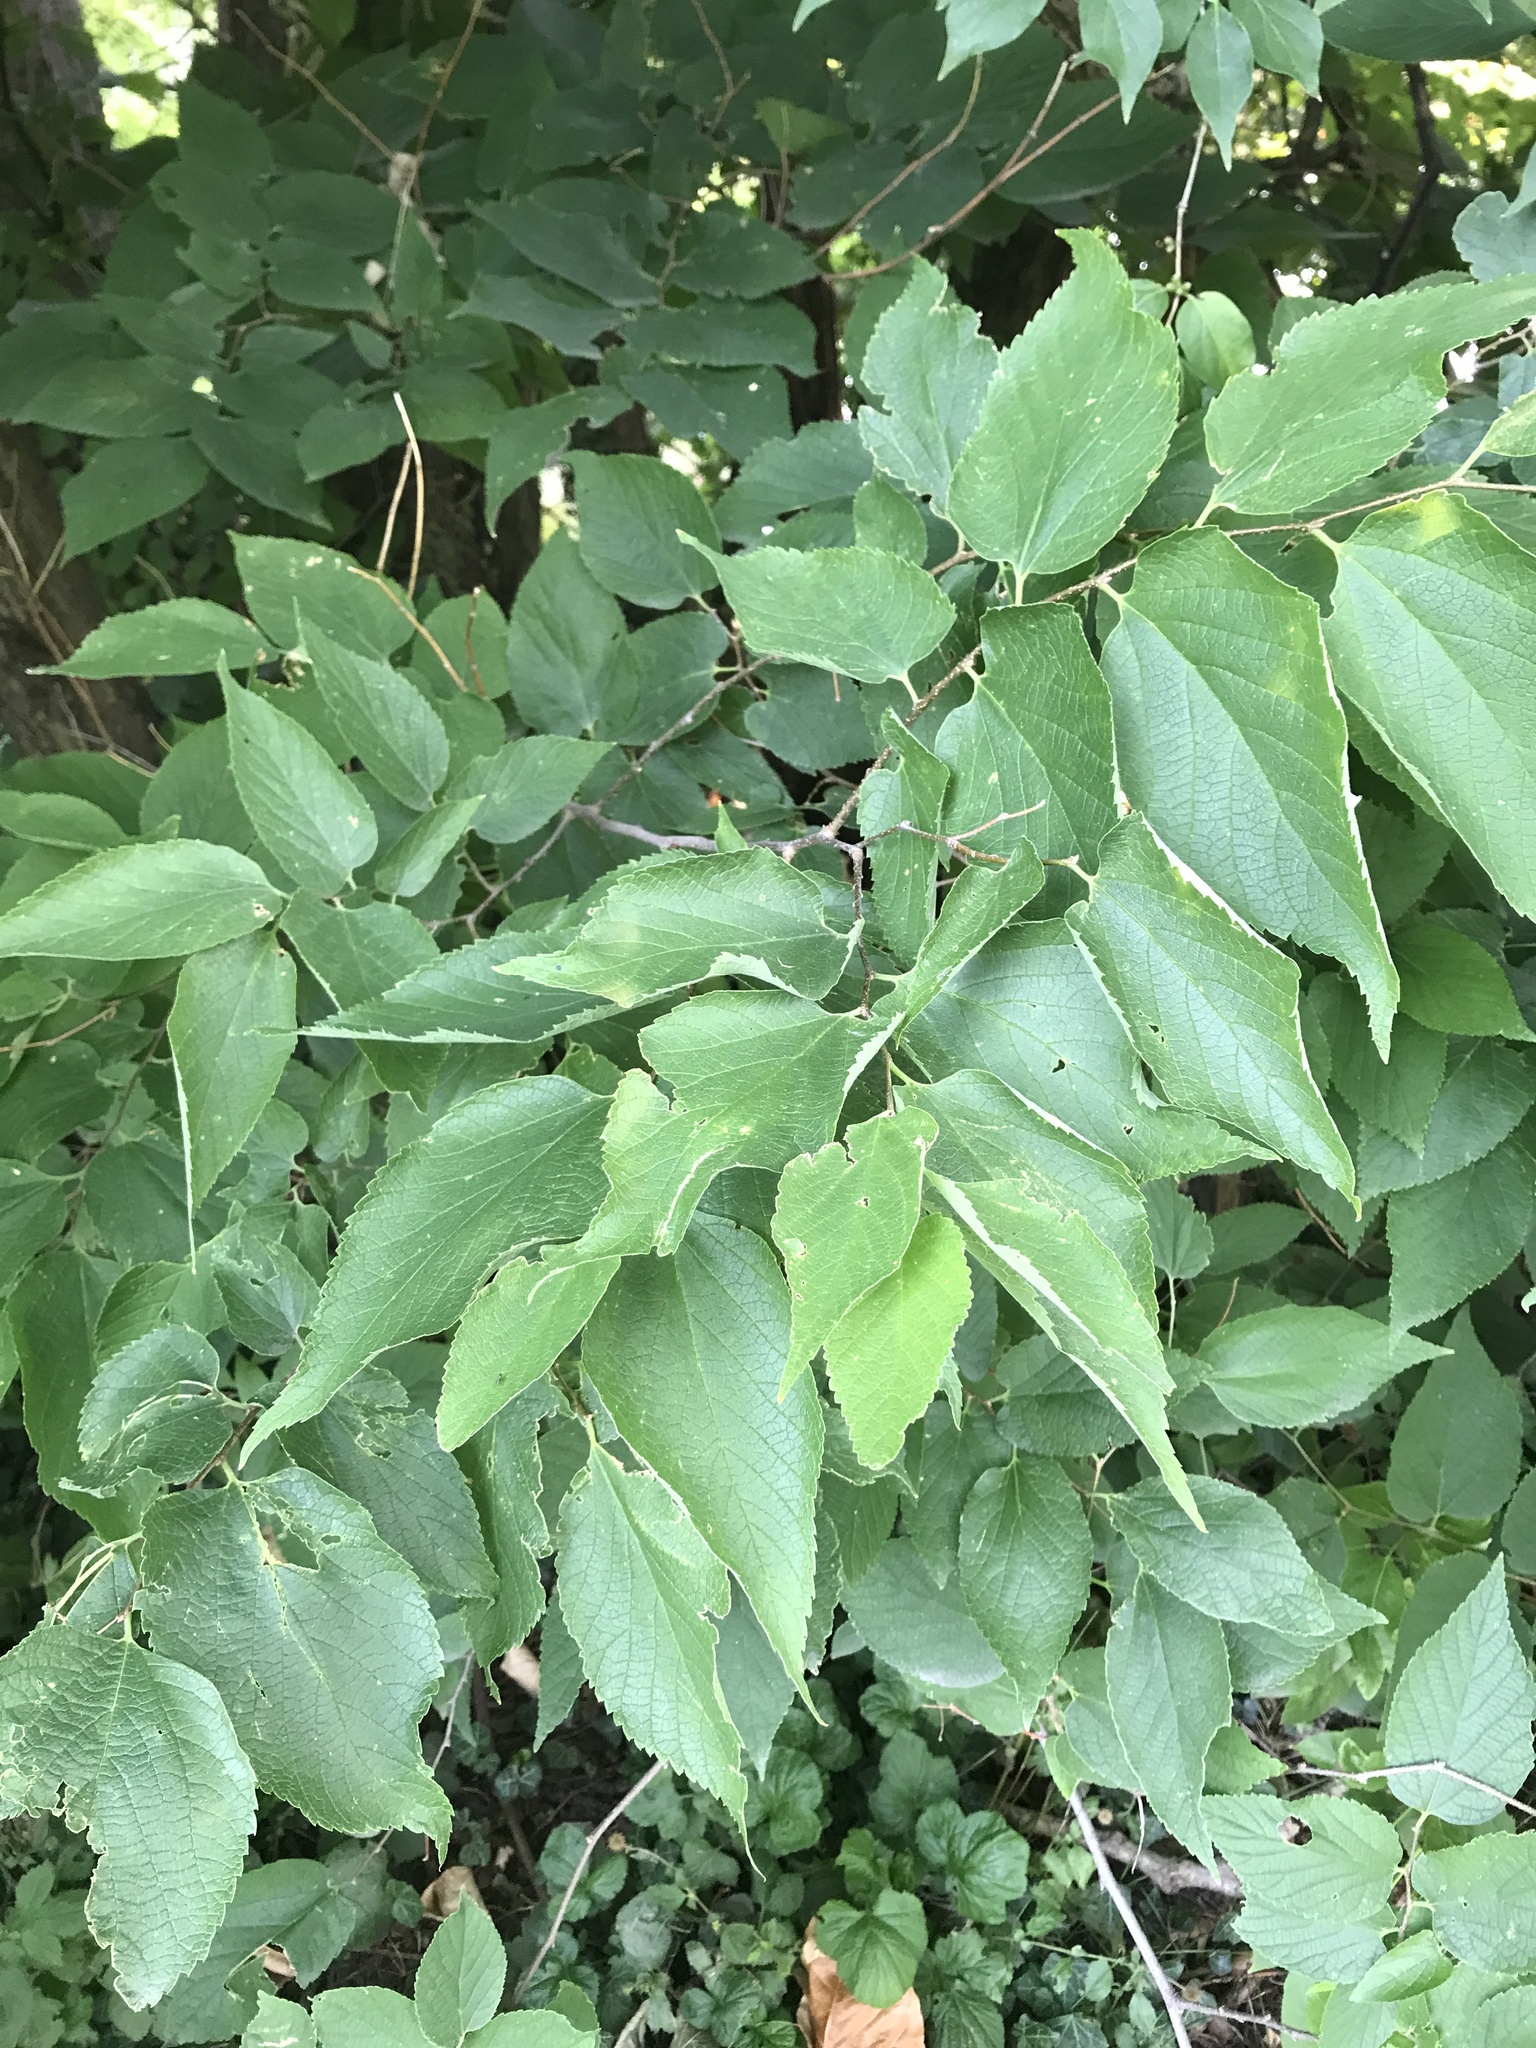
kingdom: Plantae
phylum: Tracheophyta
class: Magnoliopsida
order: Rosales
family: Cannabaceae
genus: Celtis
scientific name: Celtis reticulata
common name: Netleaf hackberry
